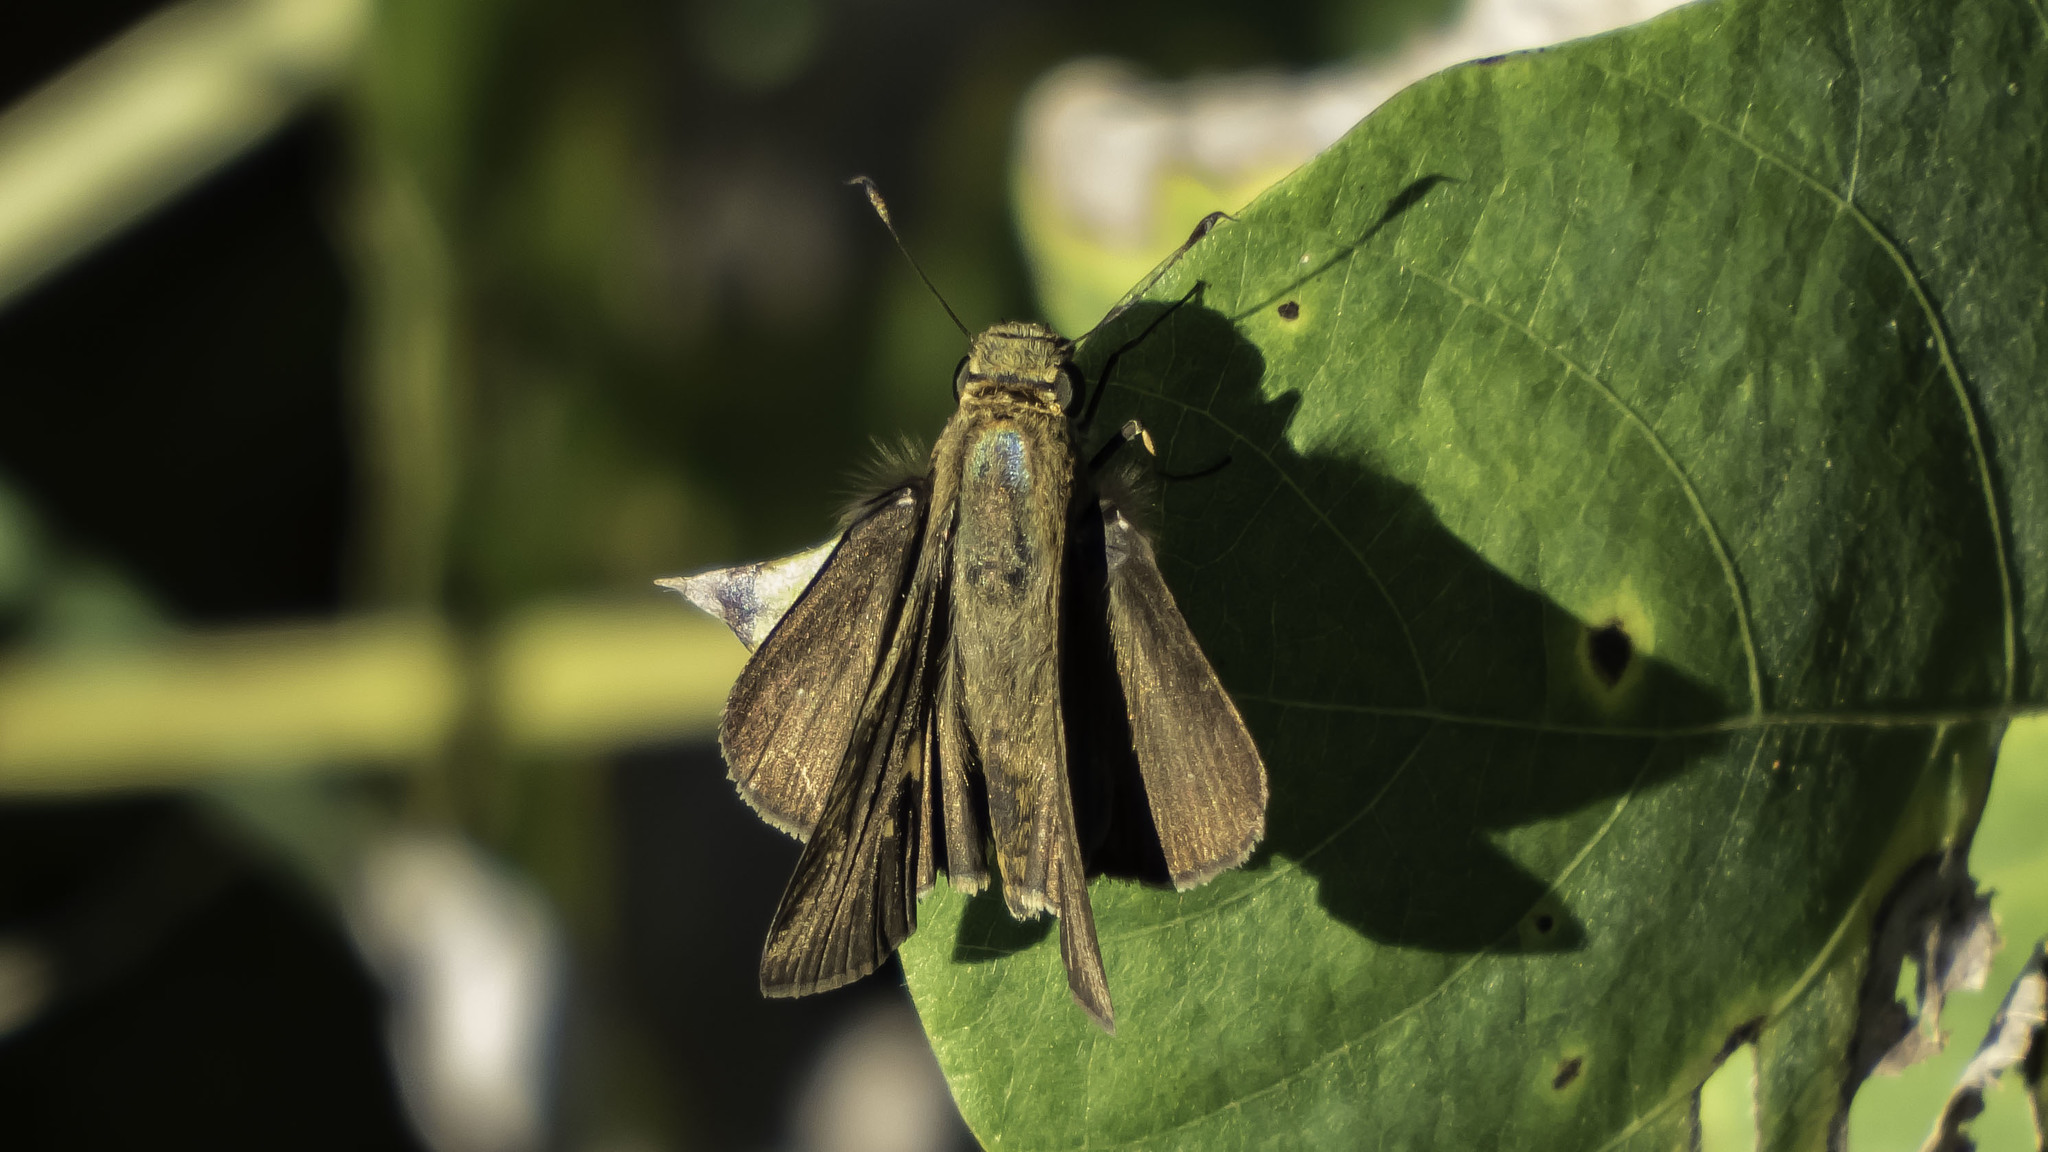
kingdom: Animalia
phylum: Arthropoda
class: Insecta
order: Lepidoptera
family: Hesperiidae
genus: Panoquina
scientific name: Panoquina ocola
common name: Ocola skipper
